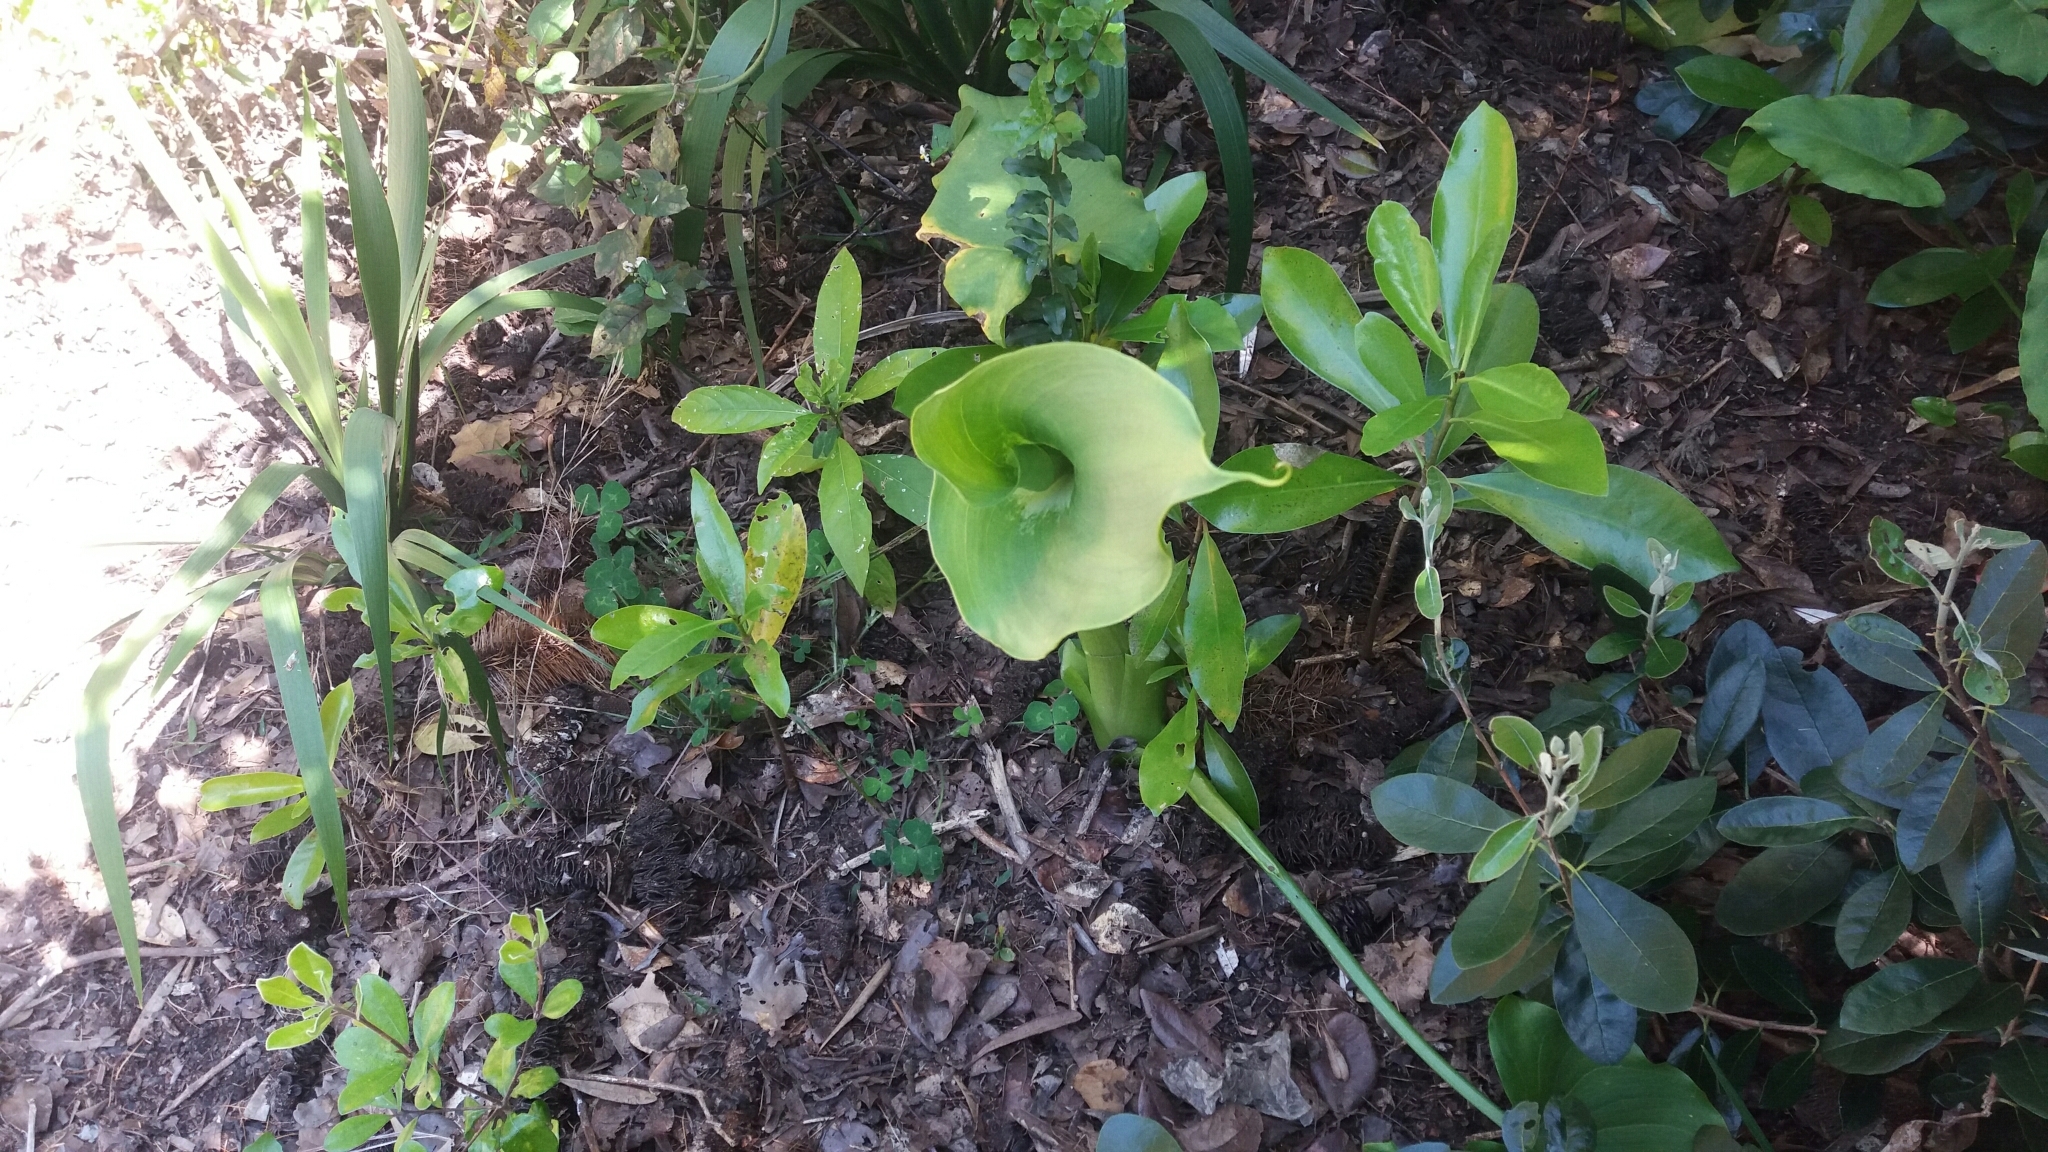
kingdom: Plantae
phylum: Tracheophyta
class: Liliopsida
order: Alismatales
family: Araceae
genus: Zantedeschia
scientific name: Zantedeschia aethiopica
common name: Altar-lily
